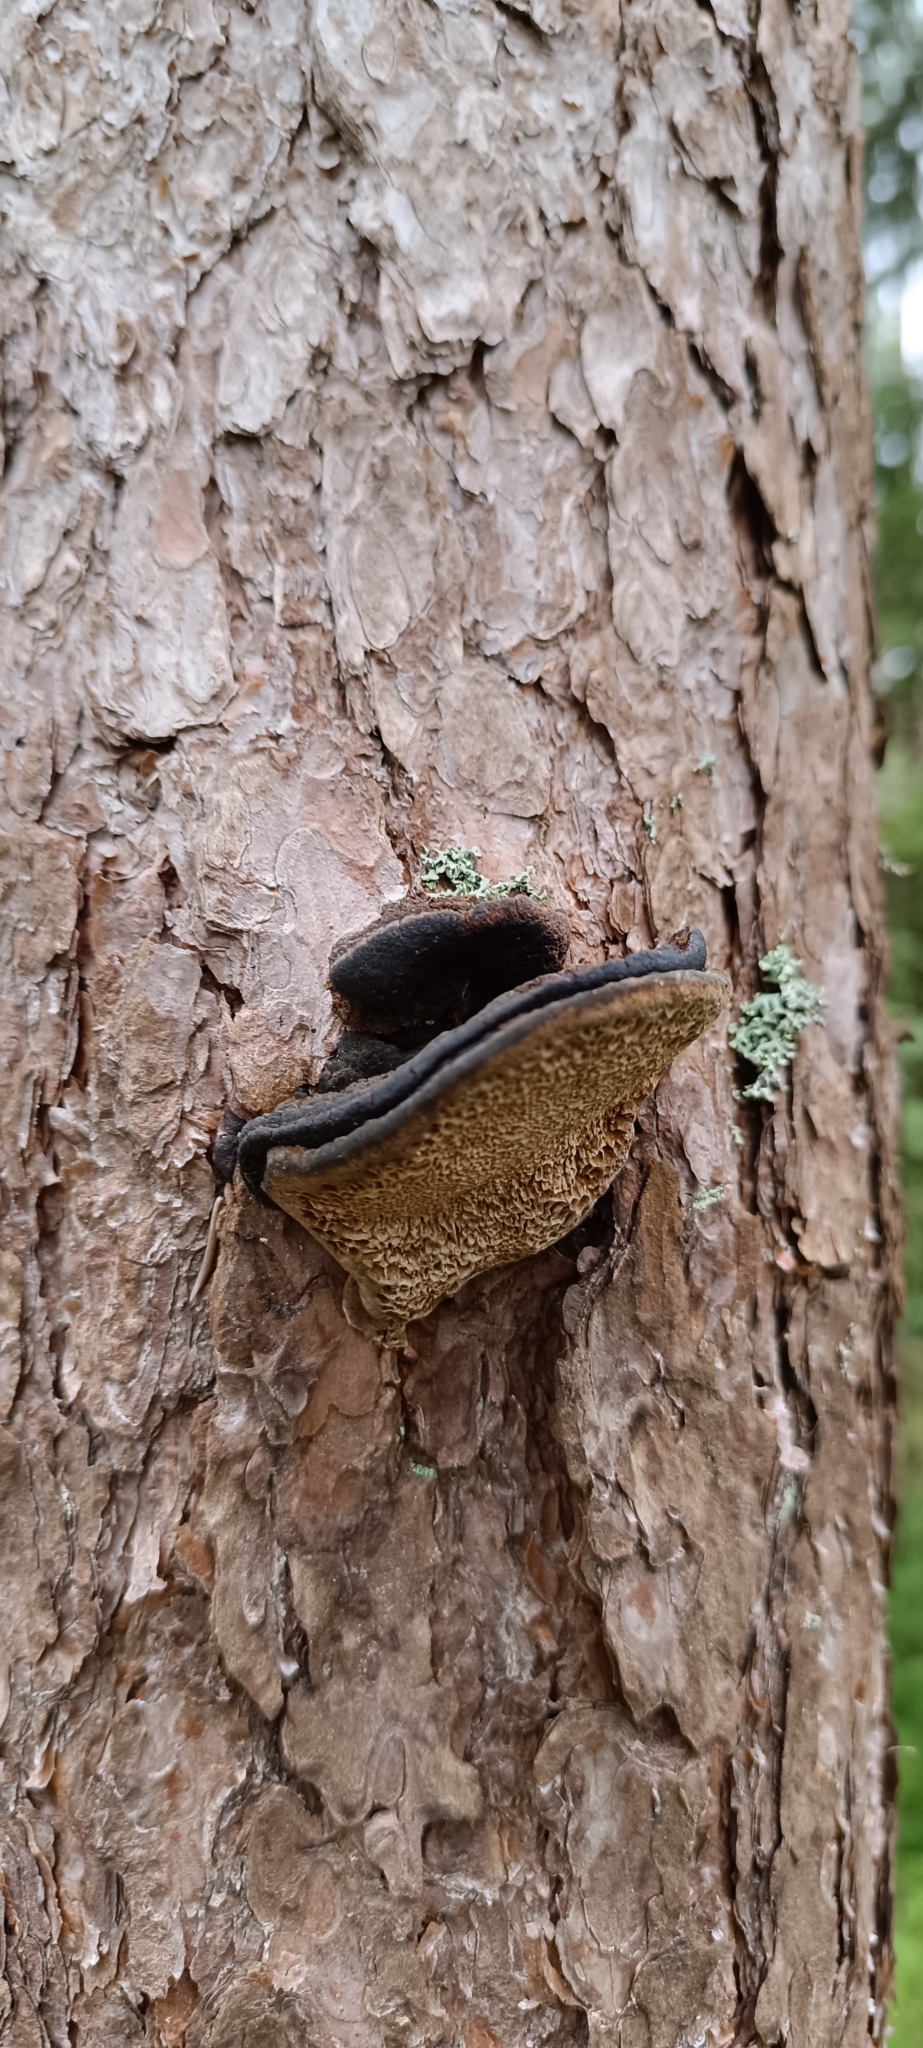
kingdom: Fungi
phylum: Basidiomycota
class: Agaricomycetes
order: Hymenochaetales
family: Hymenochaetaceae
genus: Porodaedalea
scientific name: Porodaedalea pini
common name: Pine bracket
